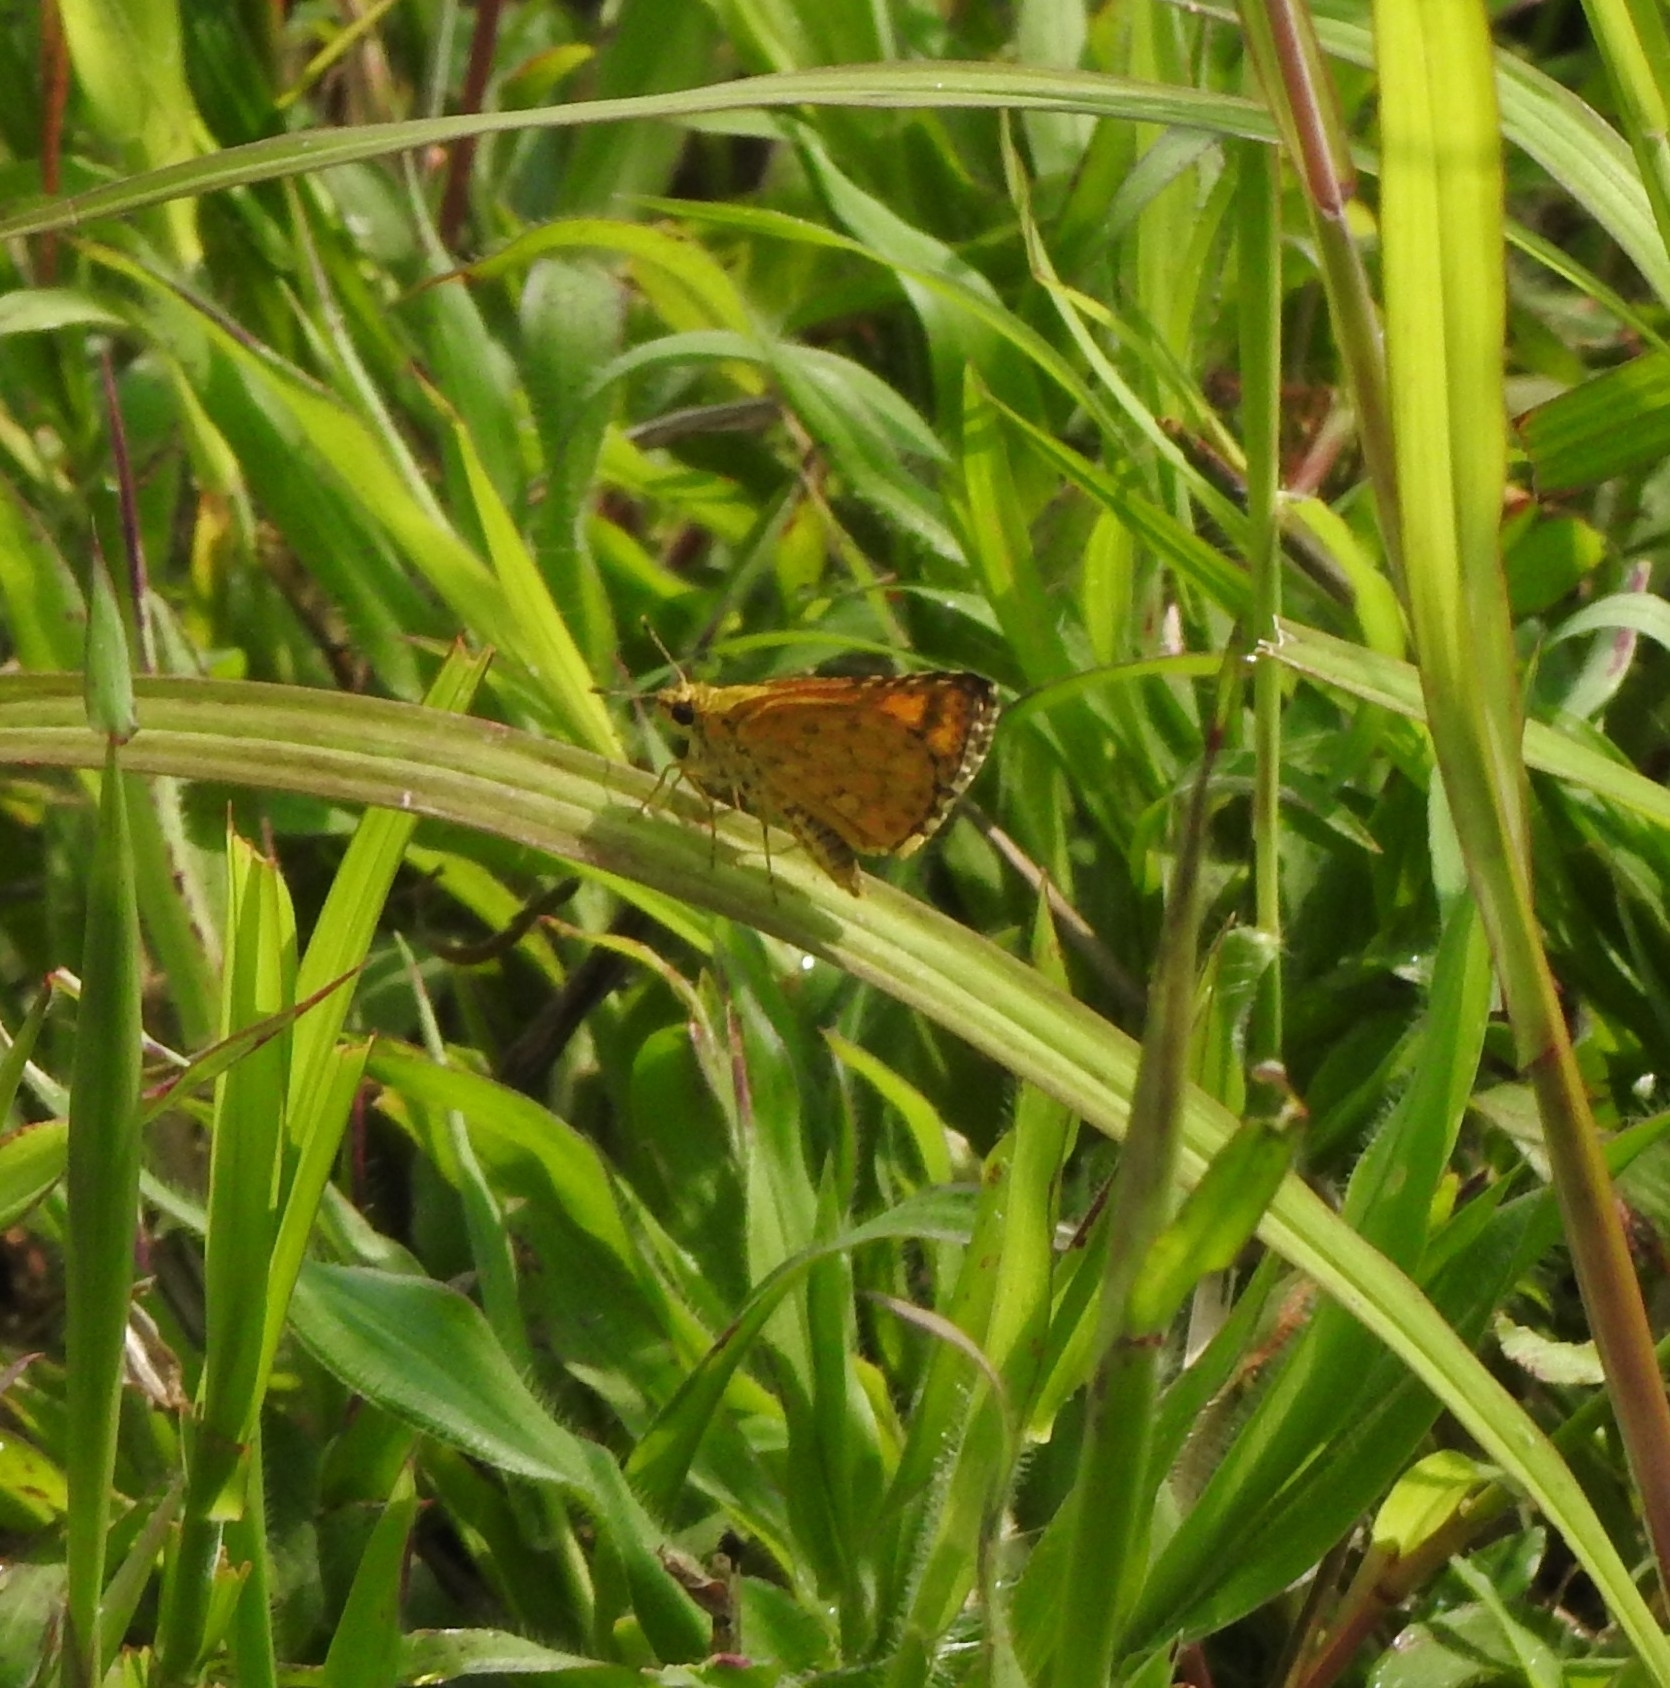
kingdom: Animalia
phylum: Arthropoda
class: Insecta
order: Lepidoptera
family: Hesperiidae
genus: Ampittia
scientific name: Ampittia dioscorides
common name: Common bush hopper
